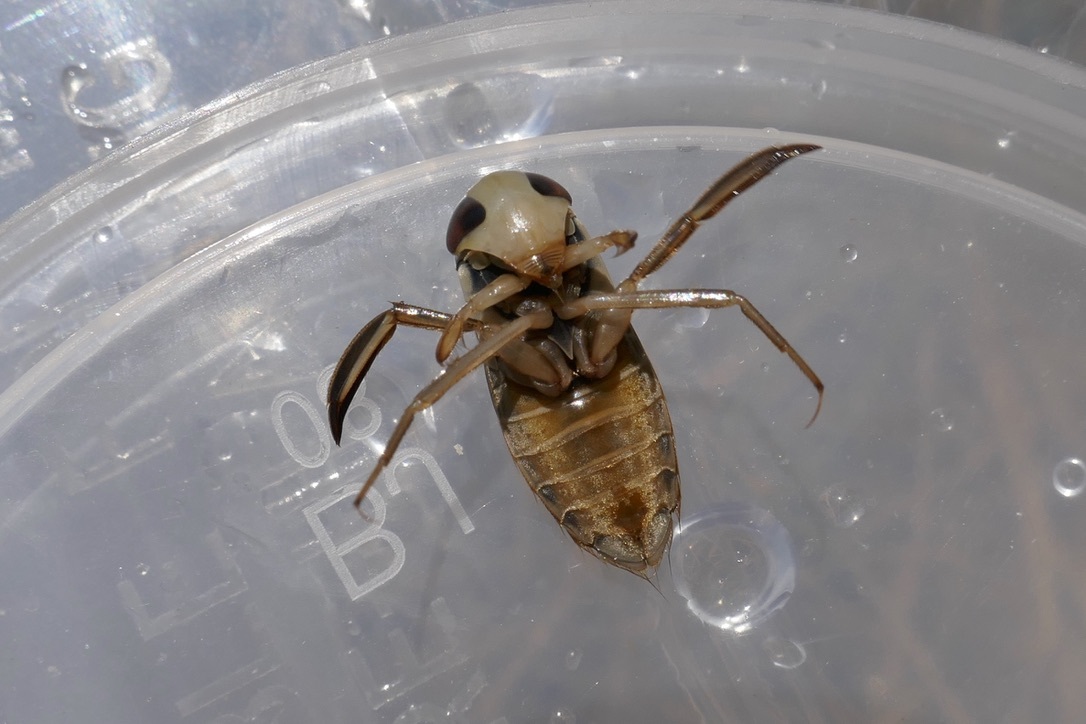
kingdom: Animalia
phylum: Arthropoda
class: Insecta
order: Hemiptera
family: Corixidae
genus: Corixa
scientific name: Corixa dentipes
